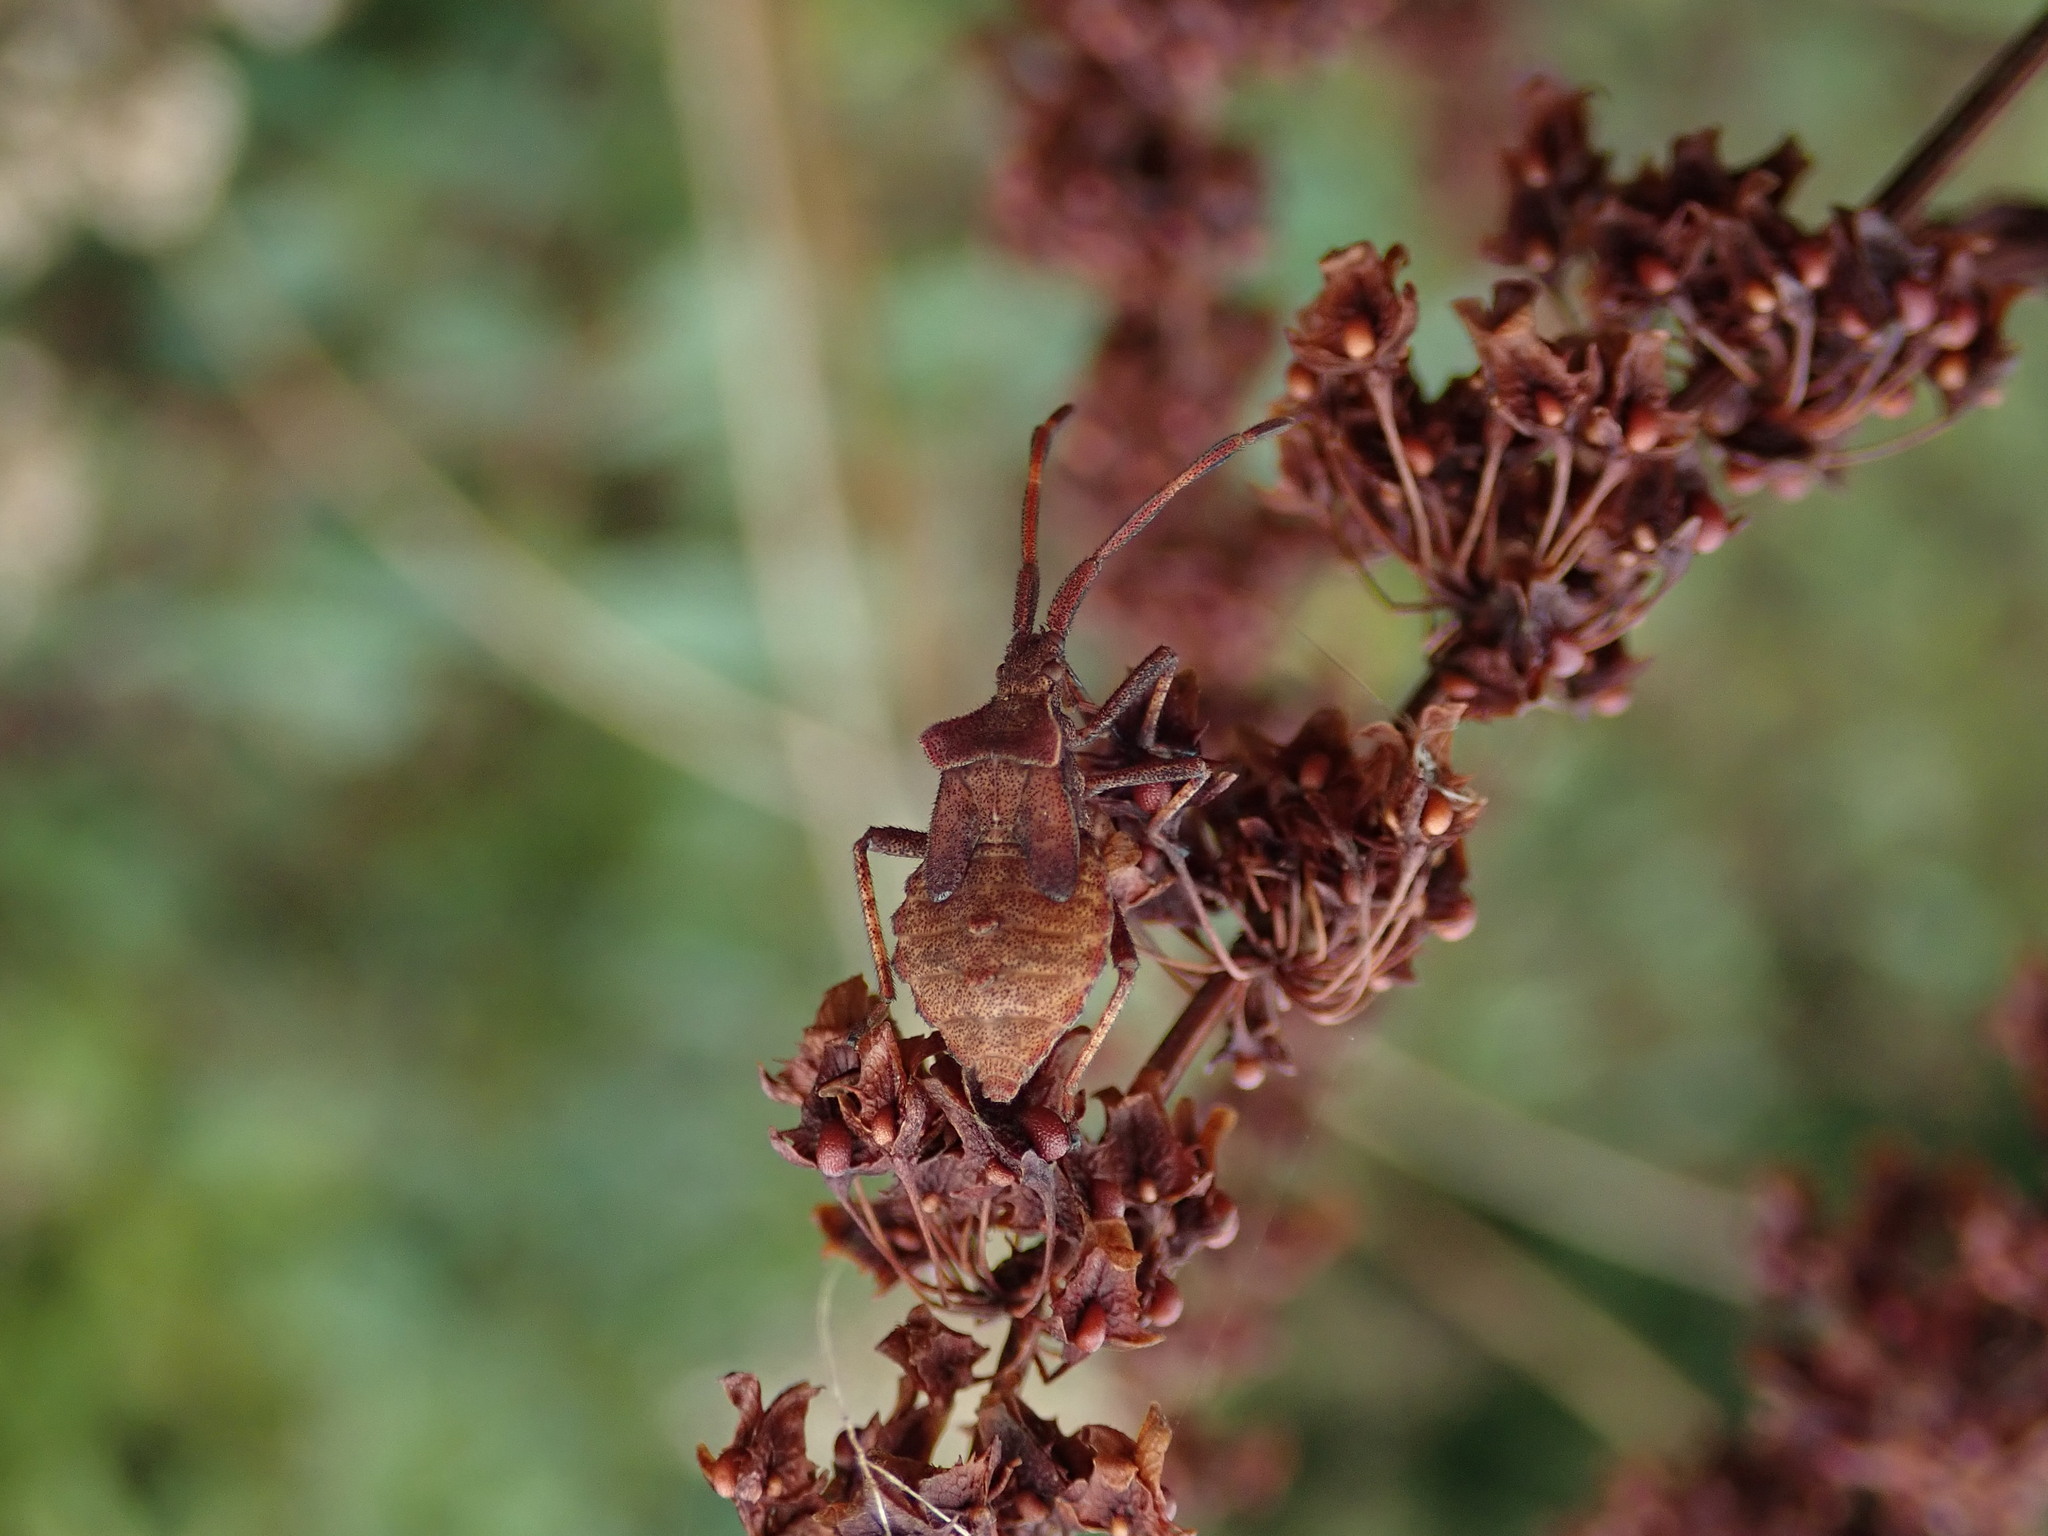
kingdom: Animalia
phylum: Arthropoda
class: Insecta
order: Hemiptera
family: Coreidae
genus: Coreus
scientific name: Coreus marginatus
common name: Dock bug
